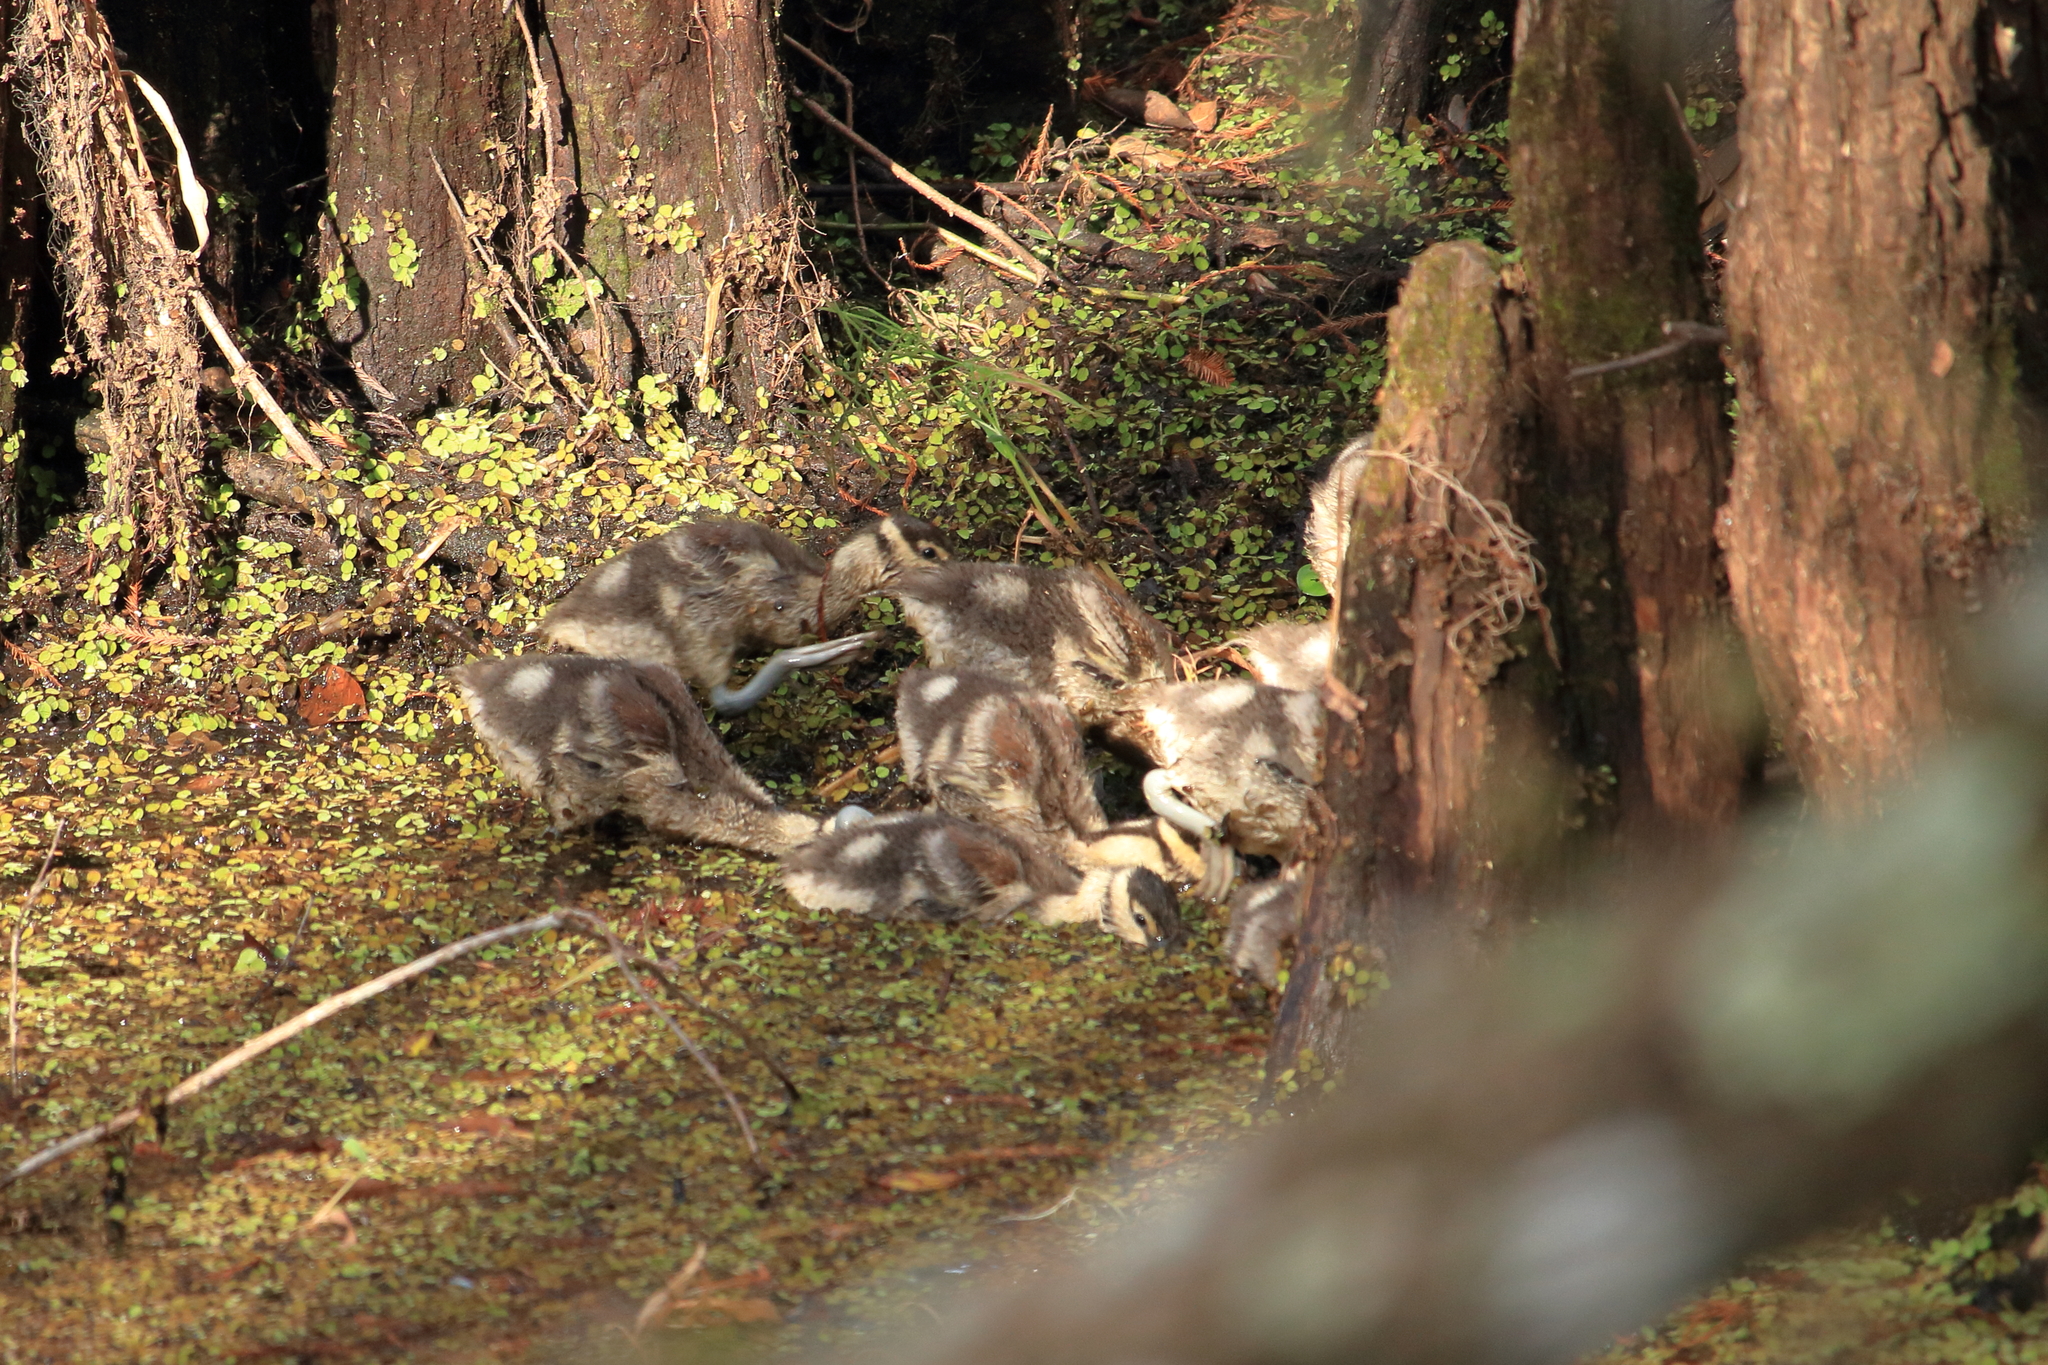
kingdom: Animalia
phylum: Chordata
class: Aves
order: Anseriformes
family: Anatidae
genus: Dendrocygna
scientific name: Dendrocygna autumnalis
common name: Black-bellied whistling duck
